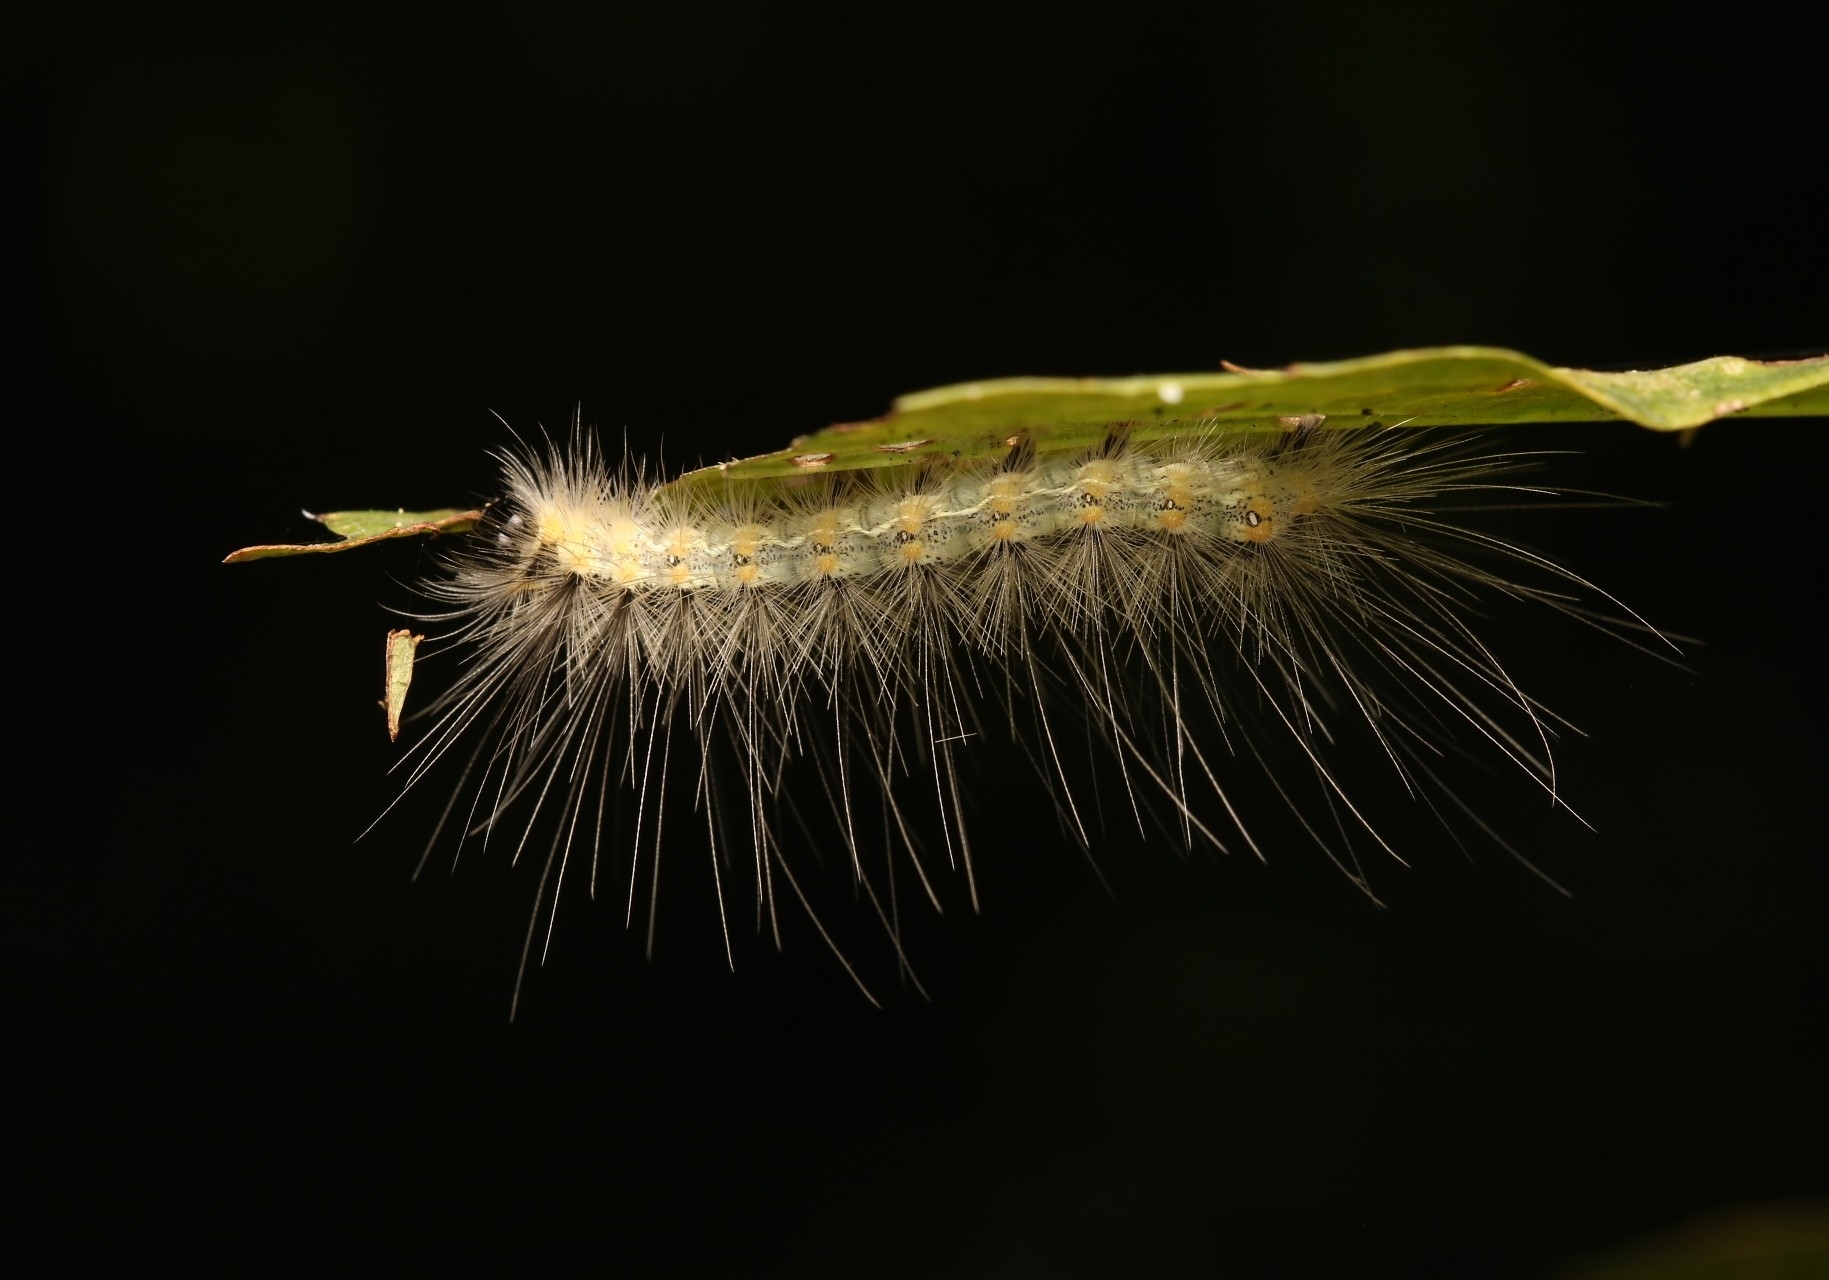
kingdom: Animalia
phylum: Arthropoda
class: Insecta
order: Lepidoptera
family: Erebidae
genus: Hyphantria
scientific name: Hyphantria cunea
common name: American white moth
